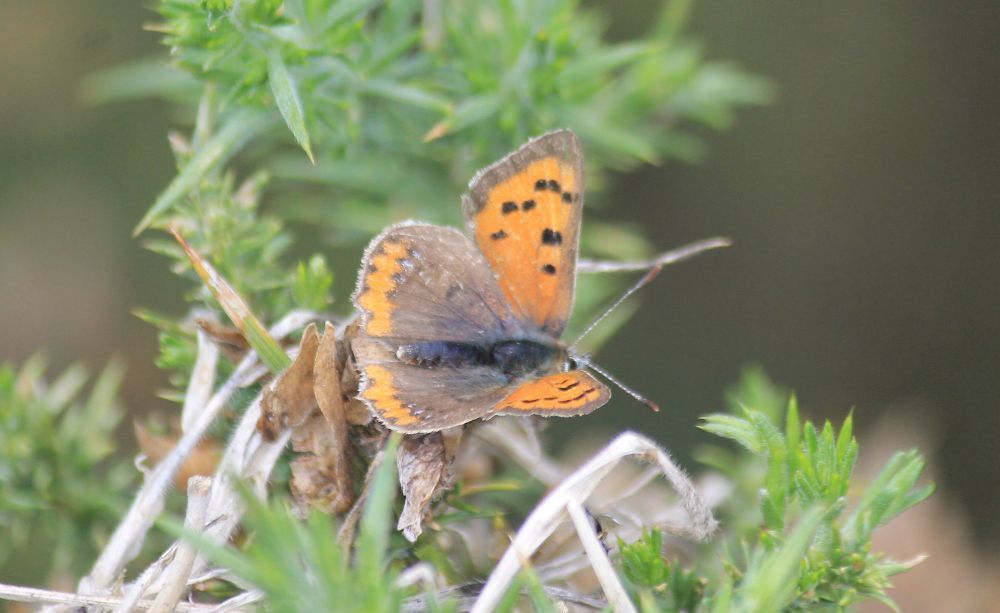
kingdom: Animalia
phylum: Arthropoda
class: Insecta
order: Lepidoptera
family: Lycaenidae
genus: Lycaena
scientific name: Lycaena phlaeas
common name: Small copper
